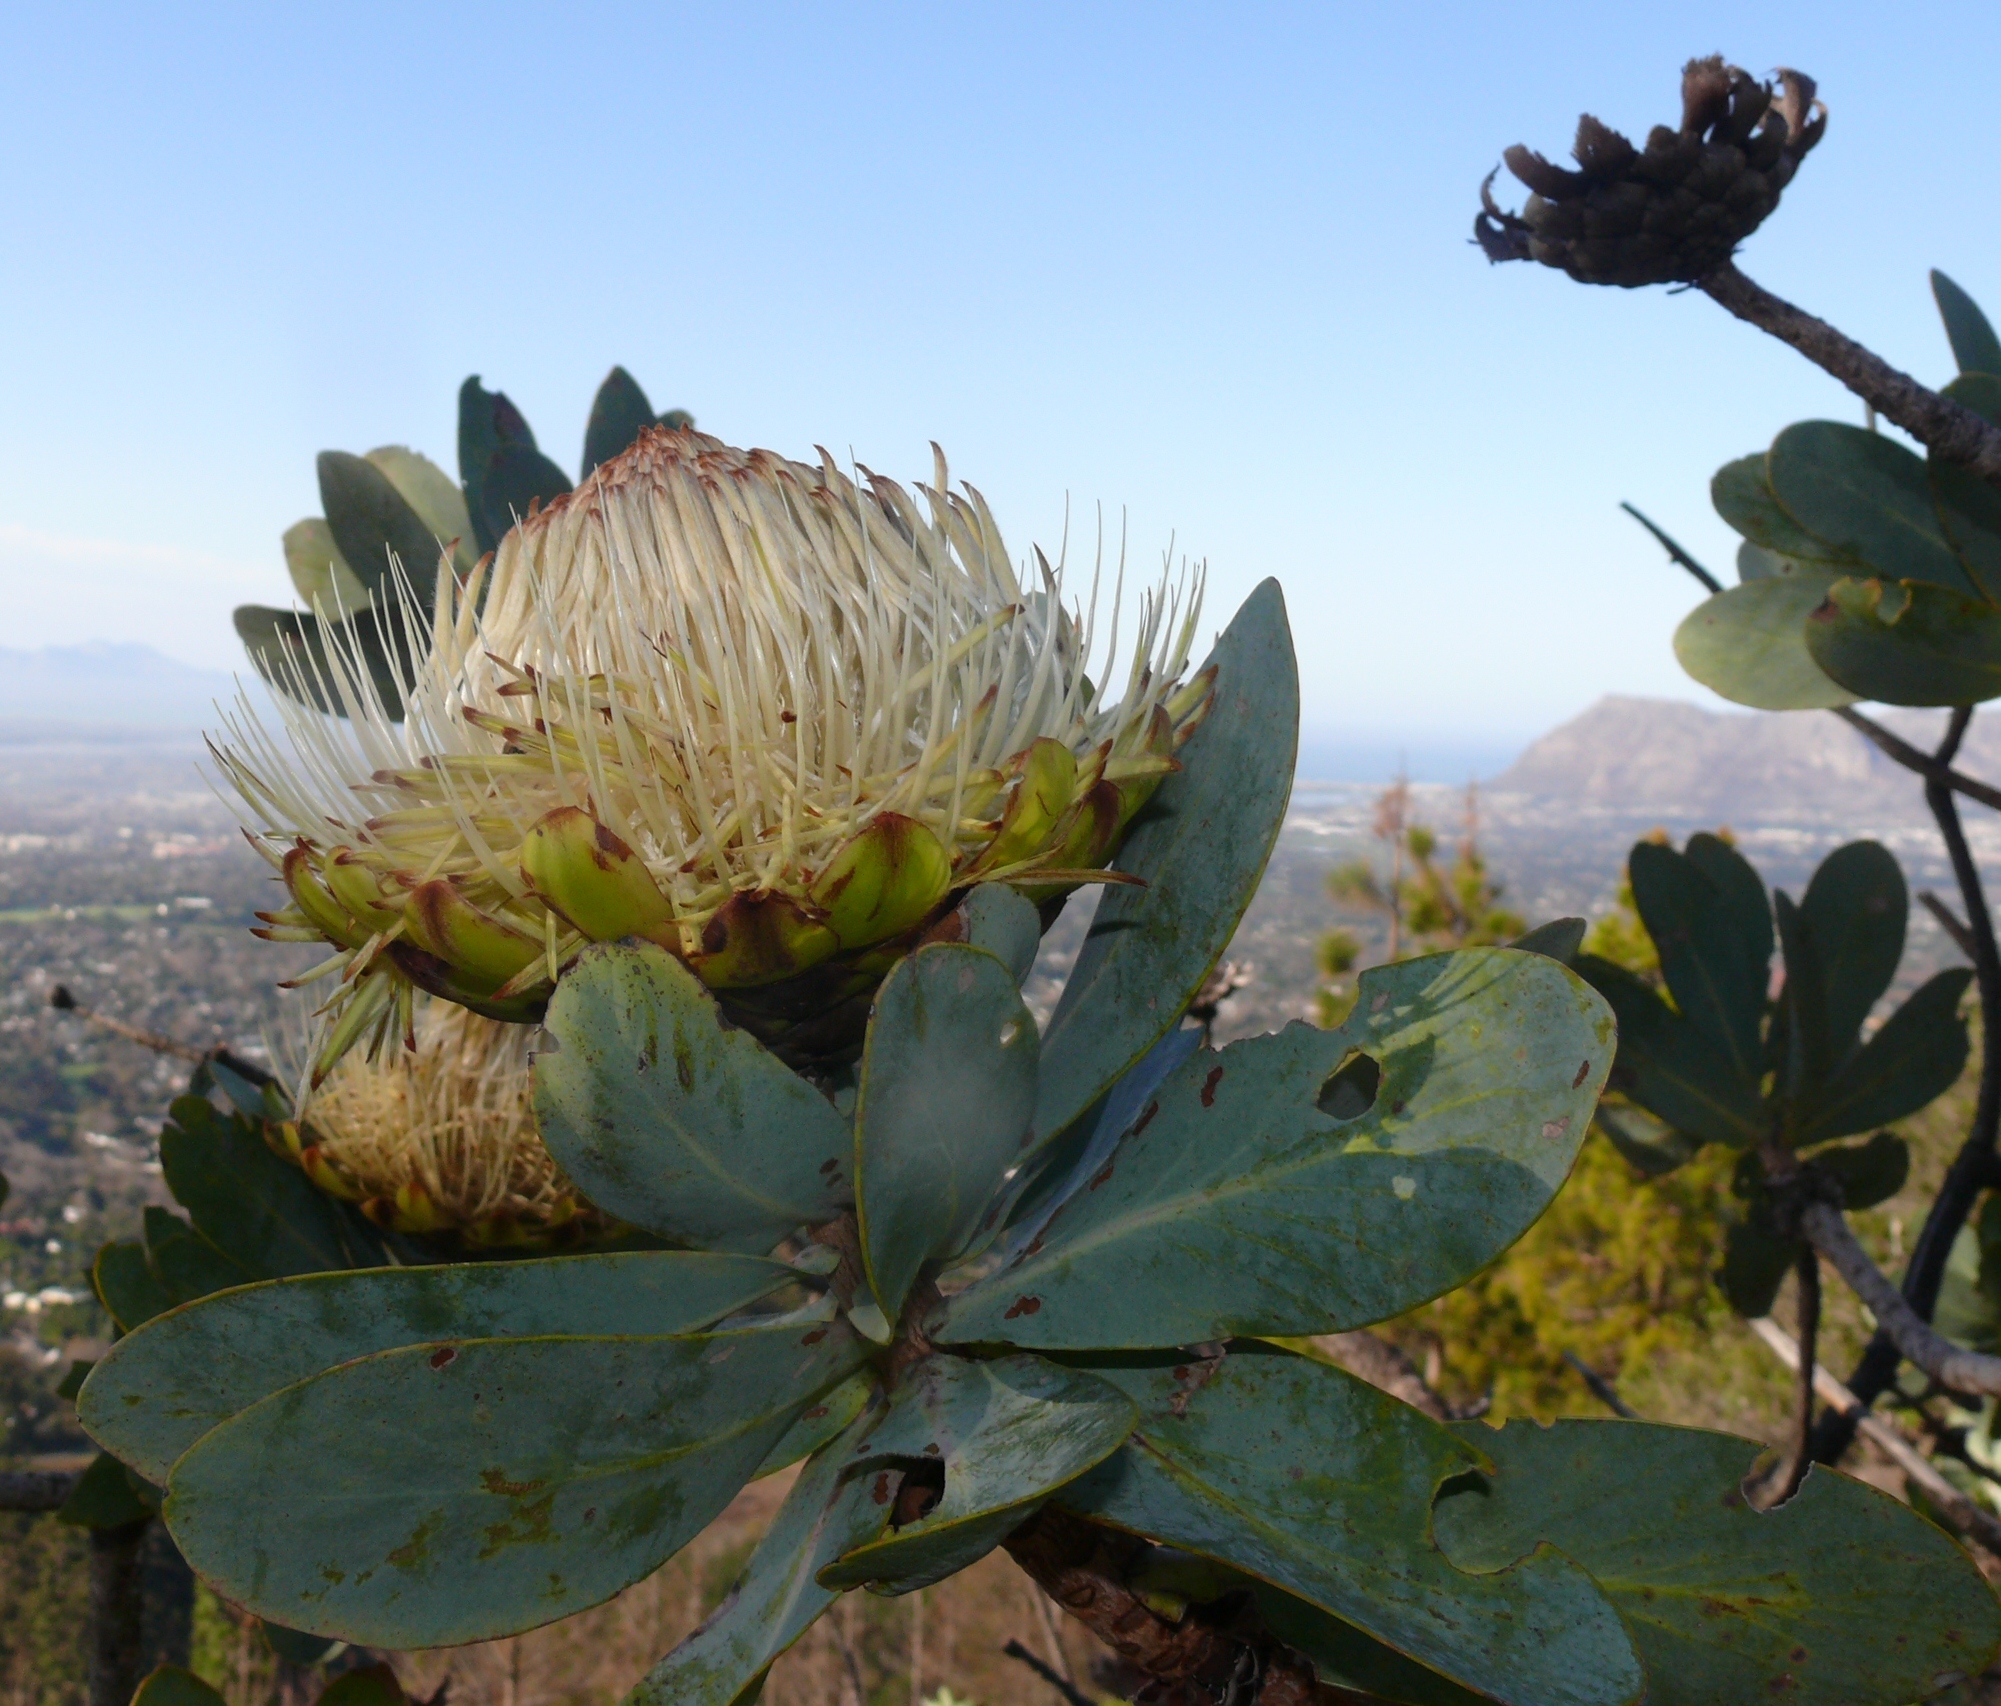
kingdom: Plantae
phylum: Tracheophyta
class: Magnoliopsida
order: Proteales
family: Proteaceae
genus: Protea
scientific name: Protea nitida
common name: Tree protea
